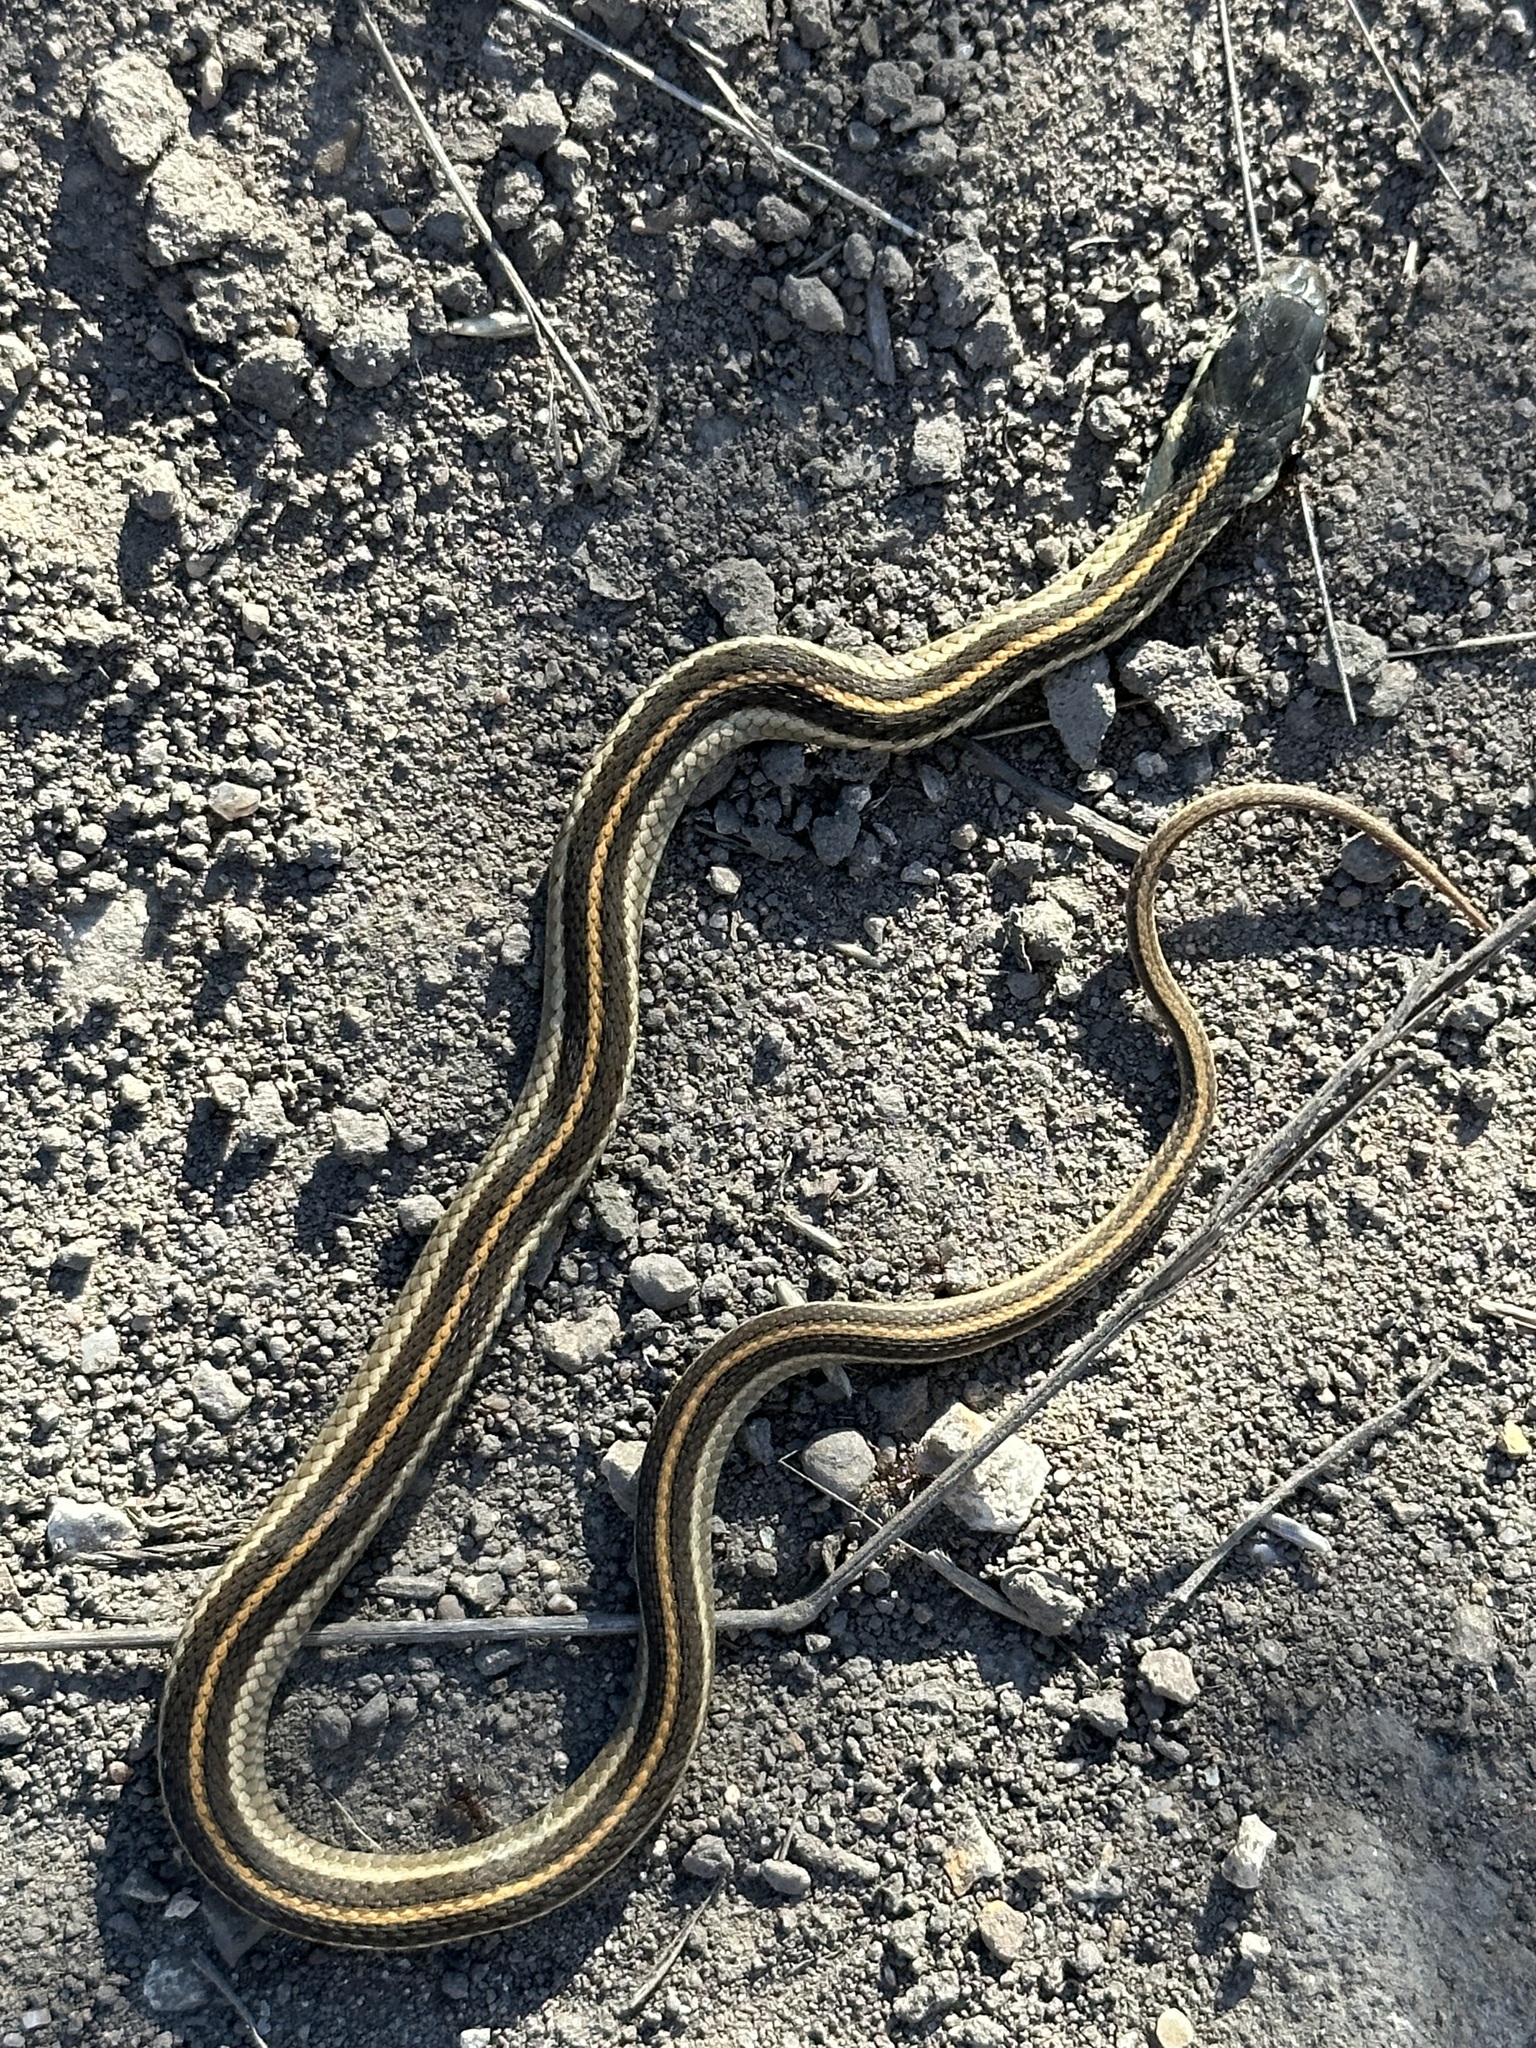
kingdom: Animalia
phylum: Chordata
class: Squamata
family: Colubridae
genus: Thamnophis
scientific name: Thamnophis elegans
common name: Western terrestrial garter snake
